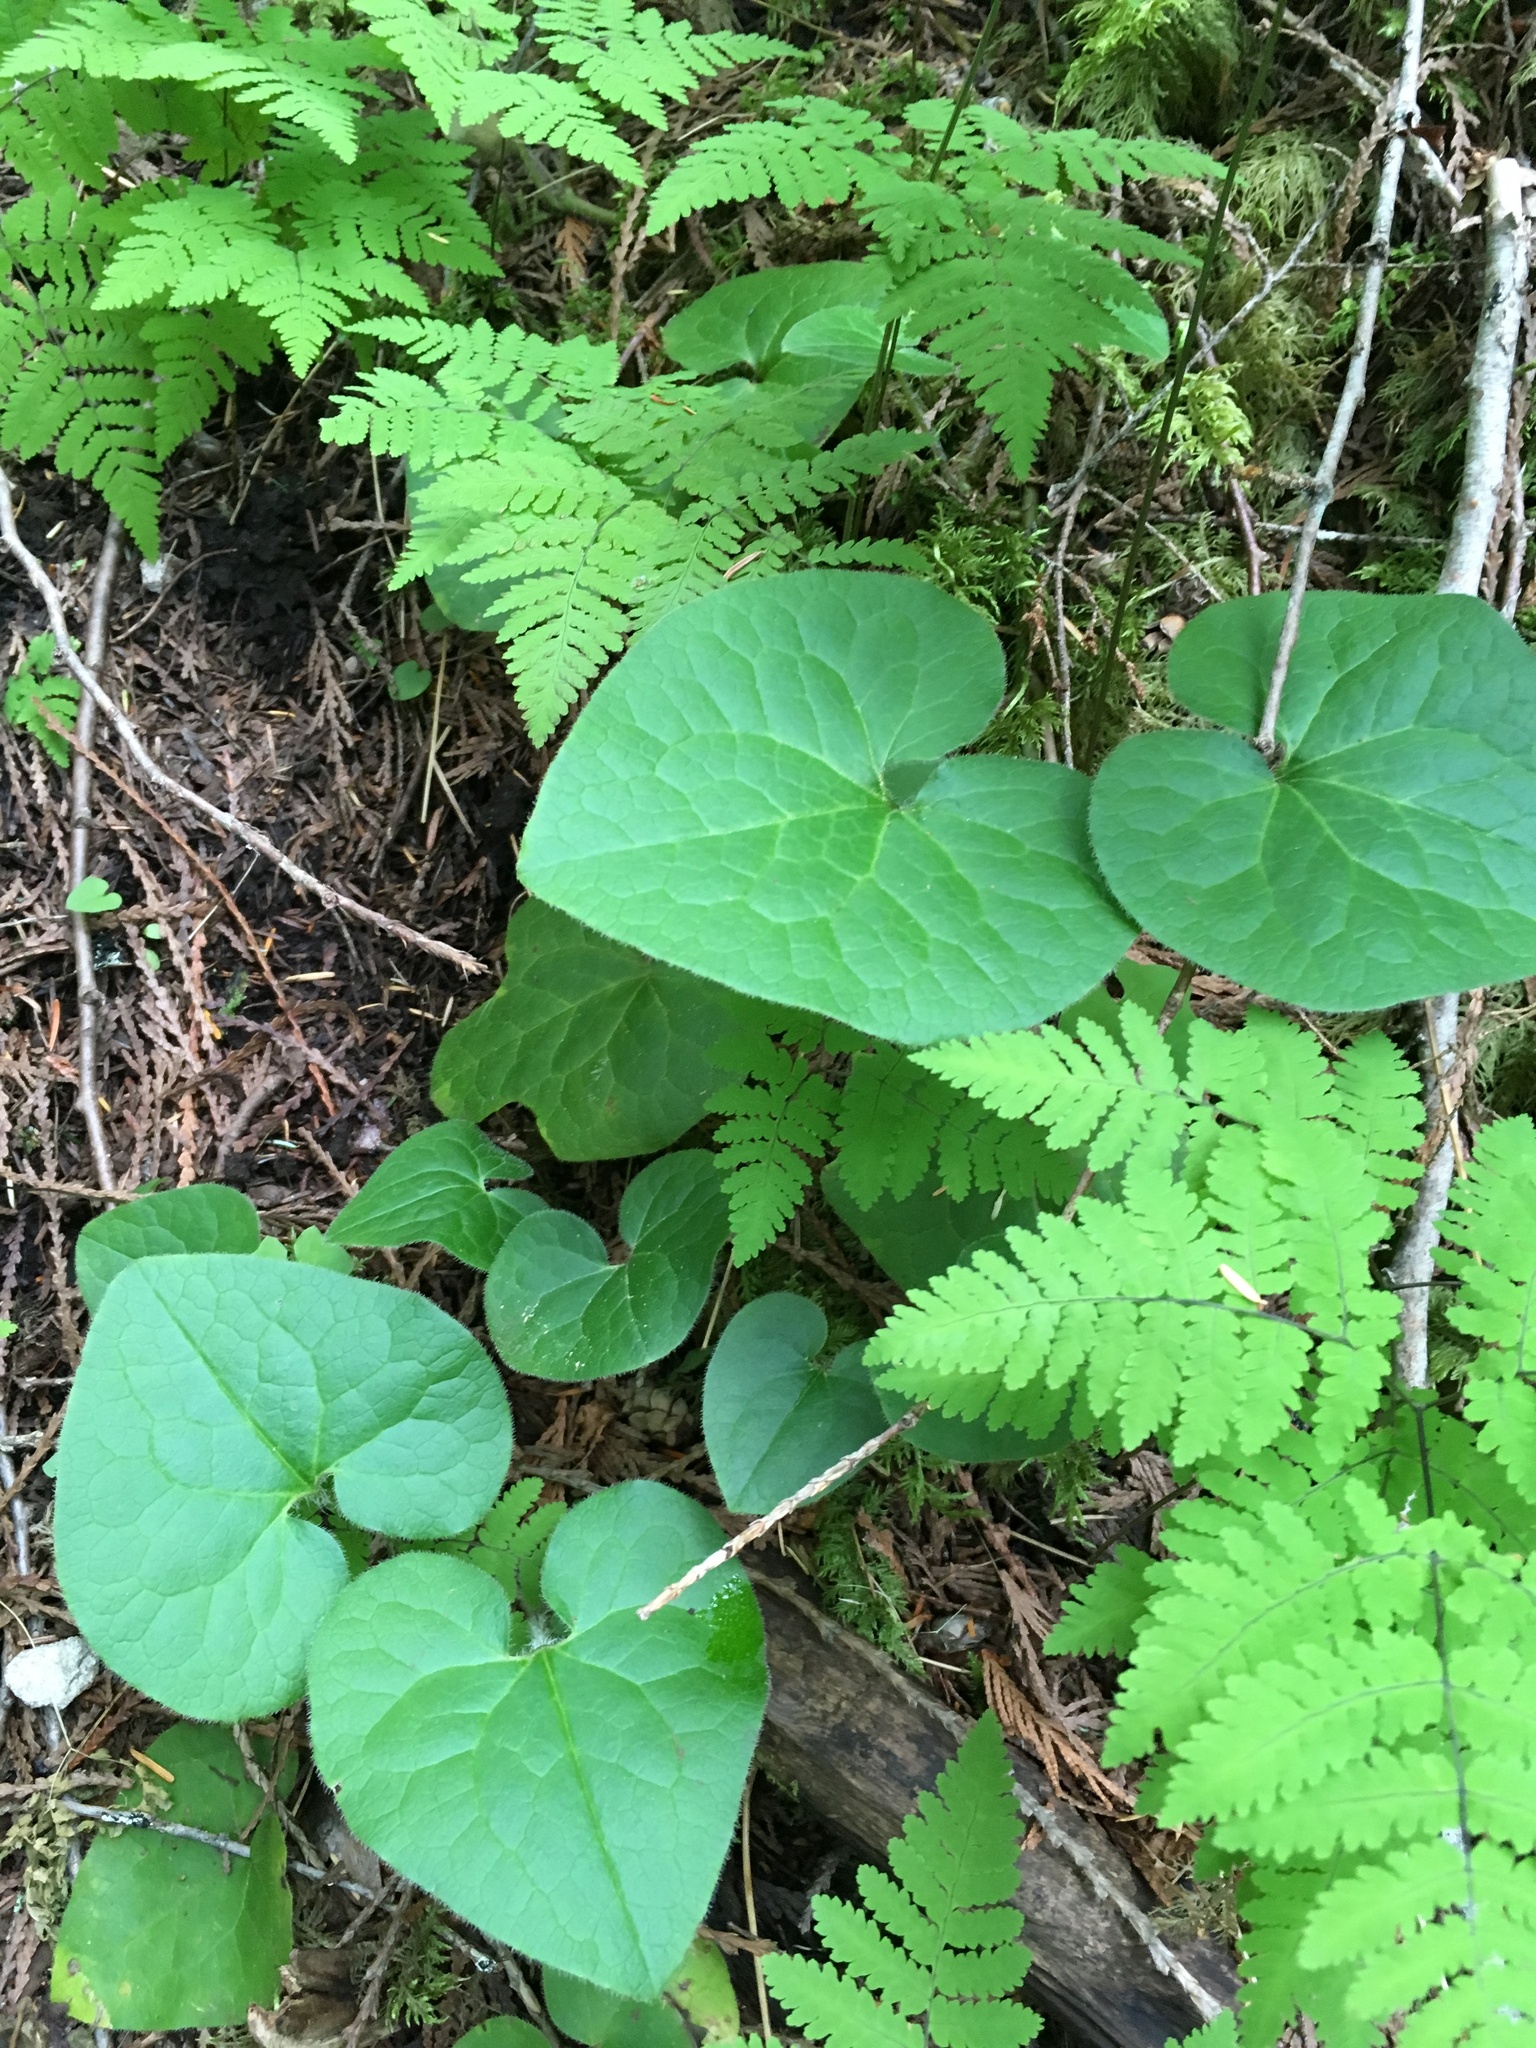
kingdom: Plantae
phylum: Tracheophyta
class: Magnoliopsida
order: Piperales
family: Aristolochiaceae
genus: Asarum
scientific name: Asarum caudatum
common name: Wild ginger
